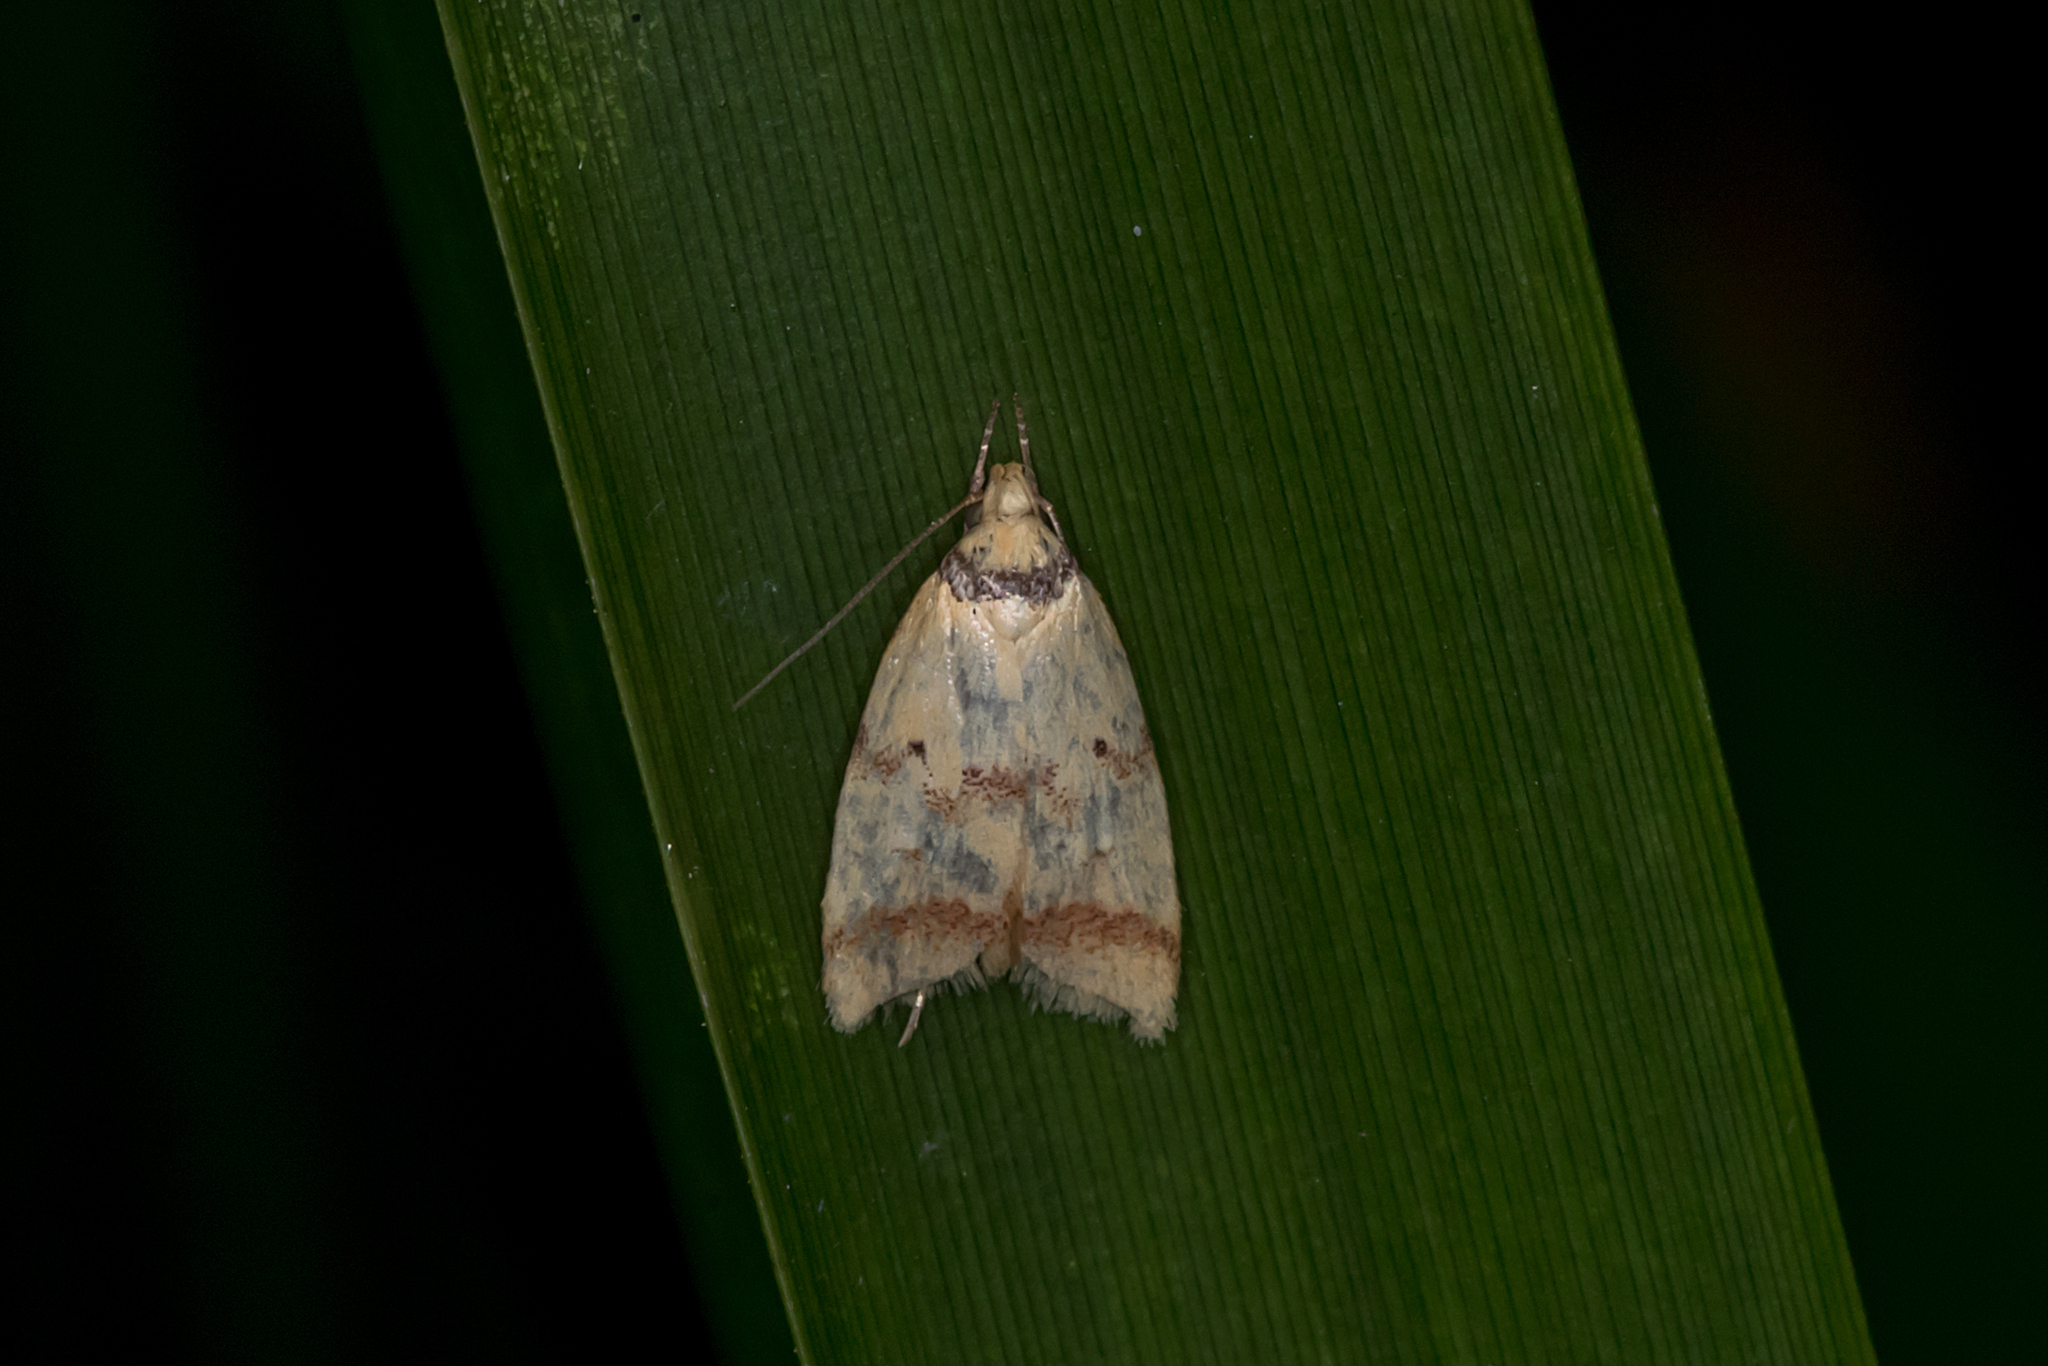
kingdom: Animalia
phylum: Arthropoda
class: Insecta
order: Lepidoptera
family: Oecophoridae
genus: Heteroteucha
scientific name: Heteroteucha anthodora
